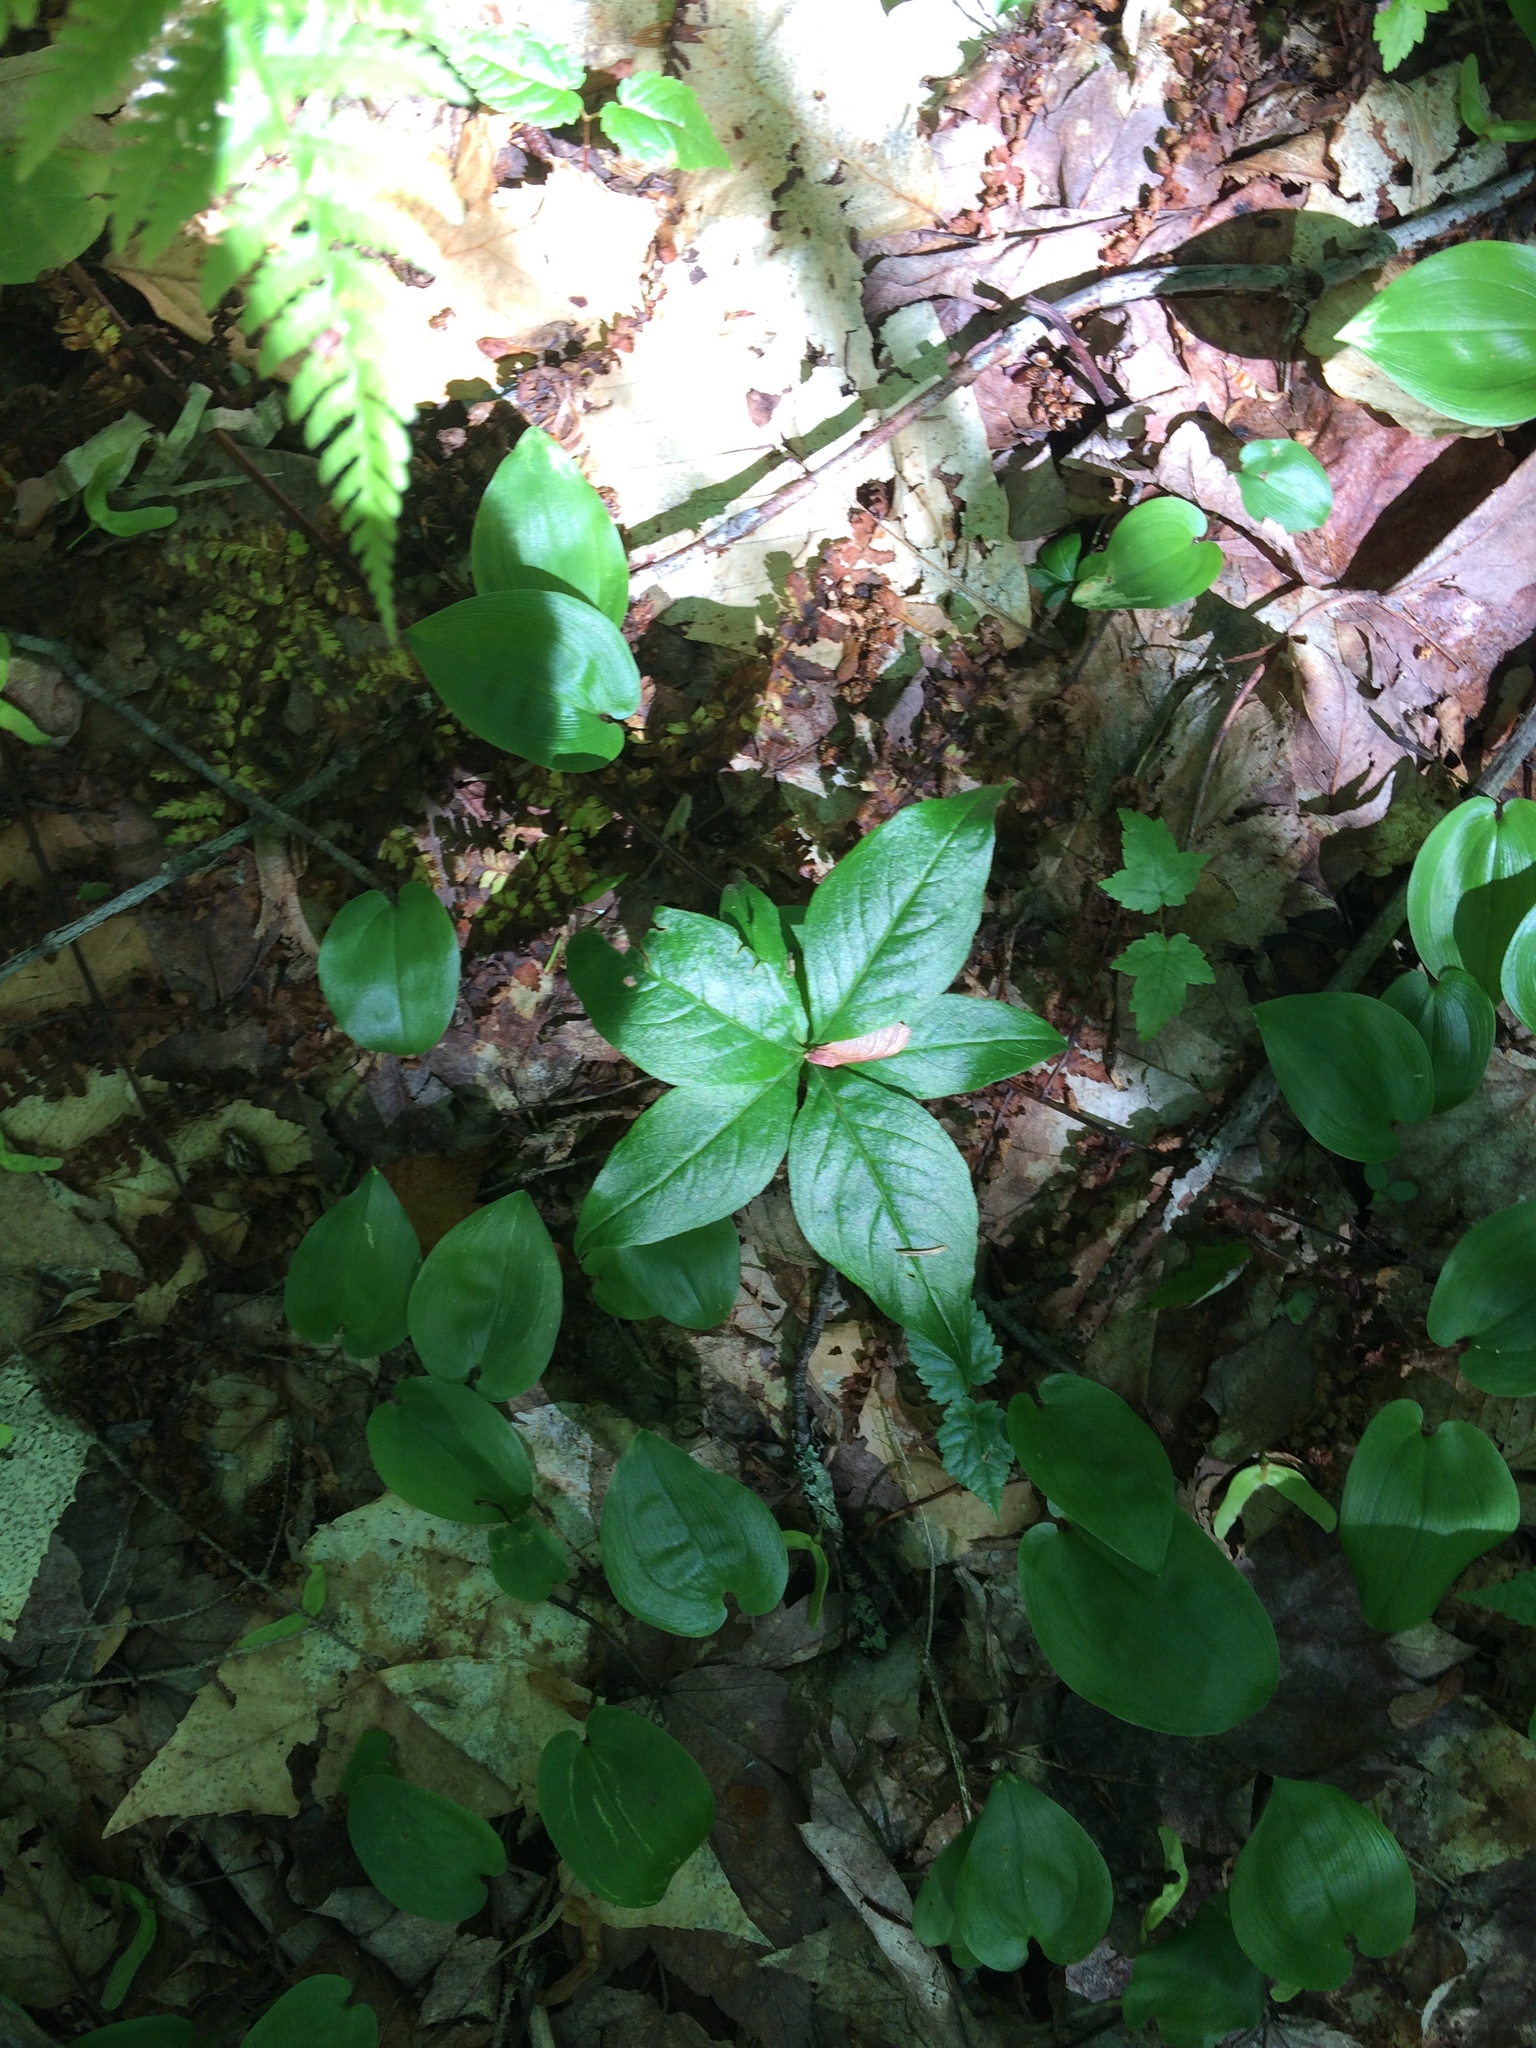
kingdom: Plantae
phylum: Tracheophyta
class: Magnoliopsida
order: Ericales
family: Primulaceae
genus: Lysimachia
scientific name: Lysimachia borealis
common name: American starflower
